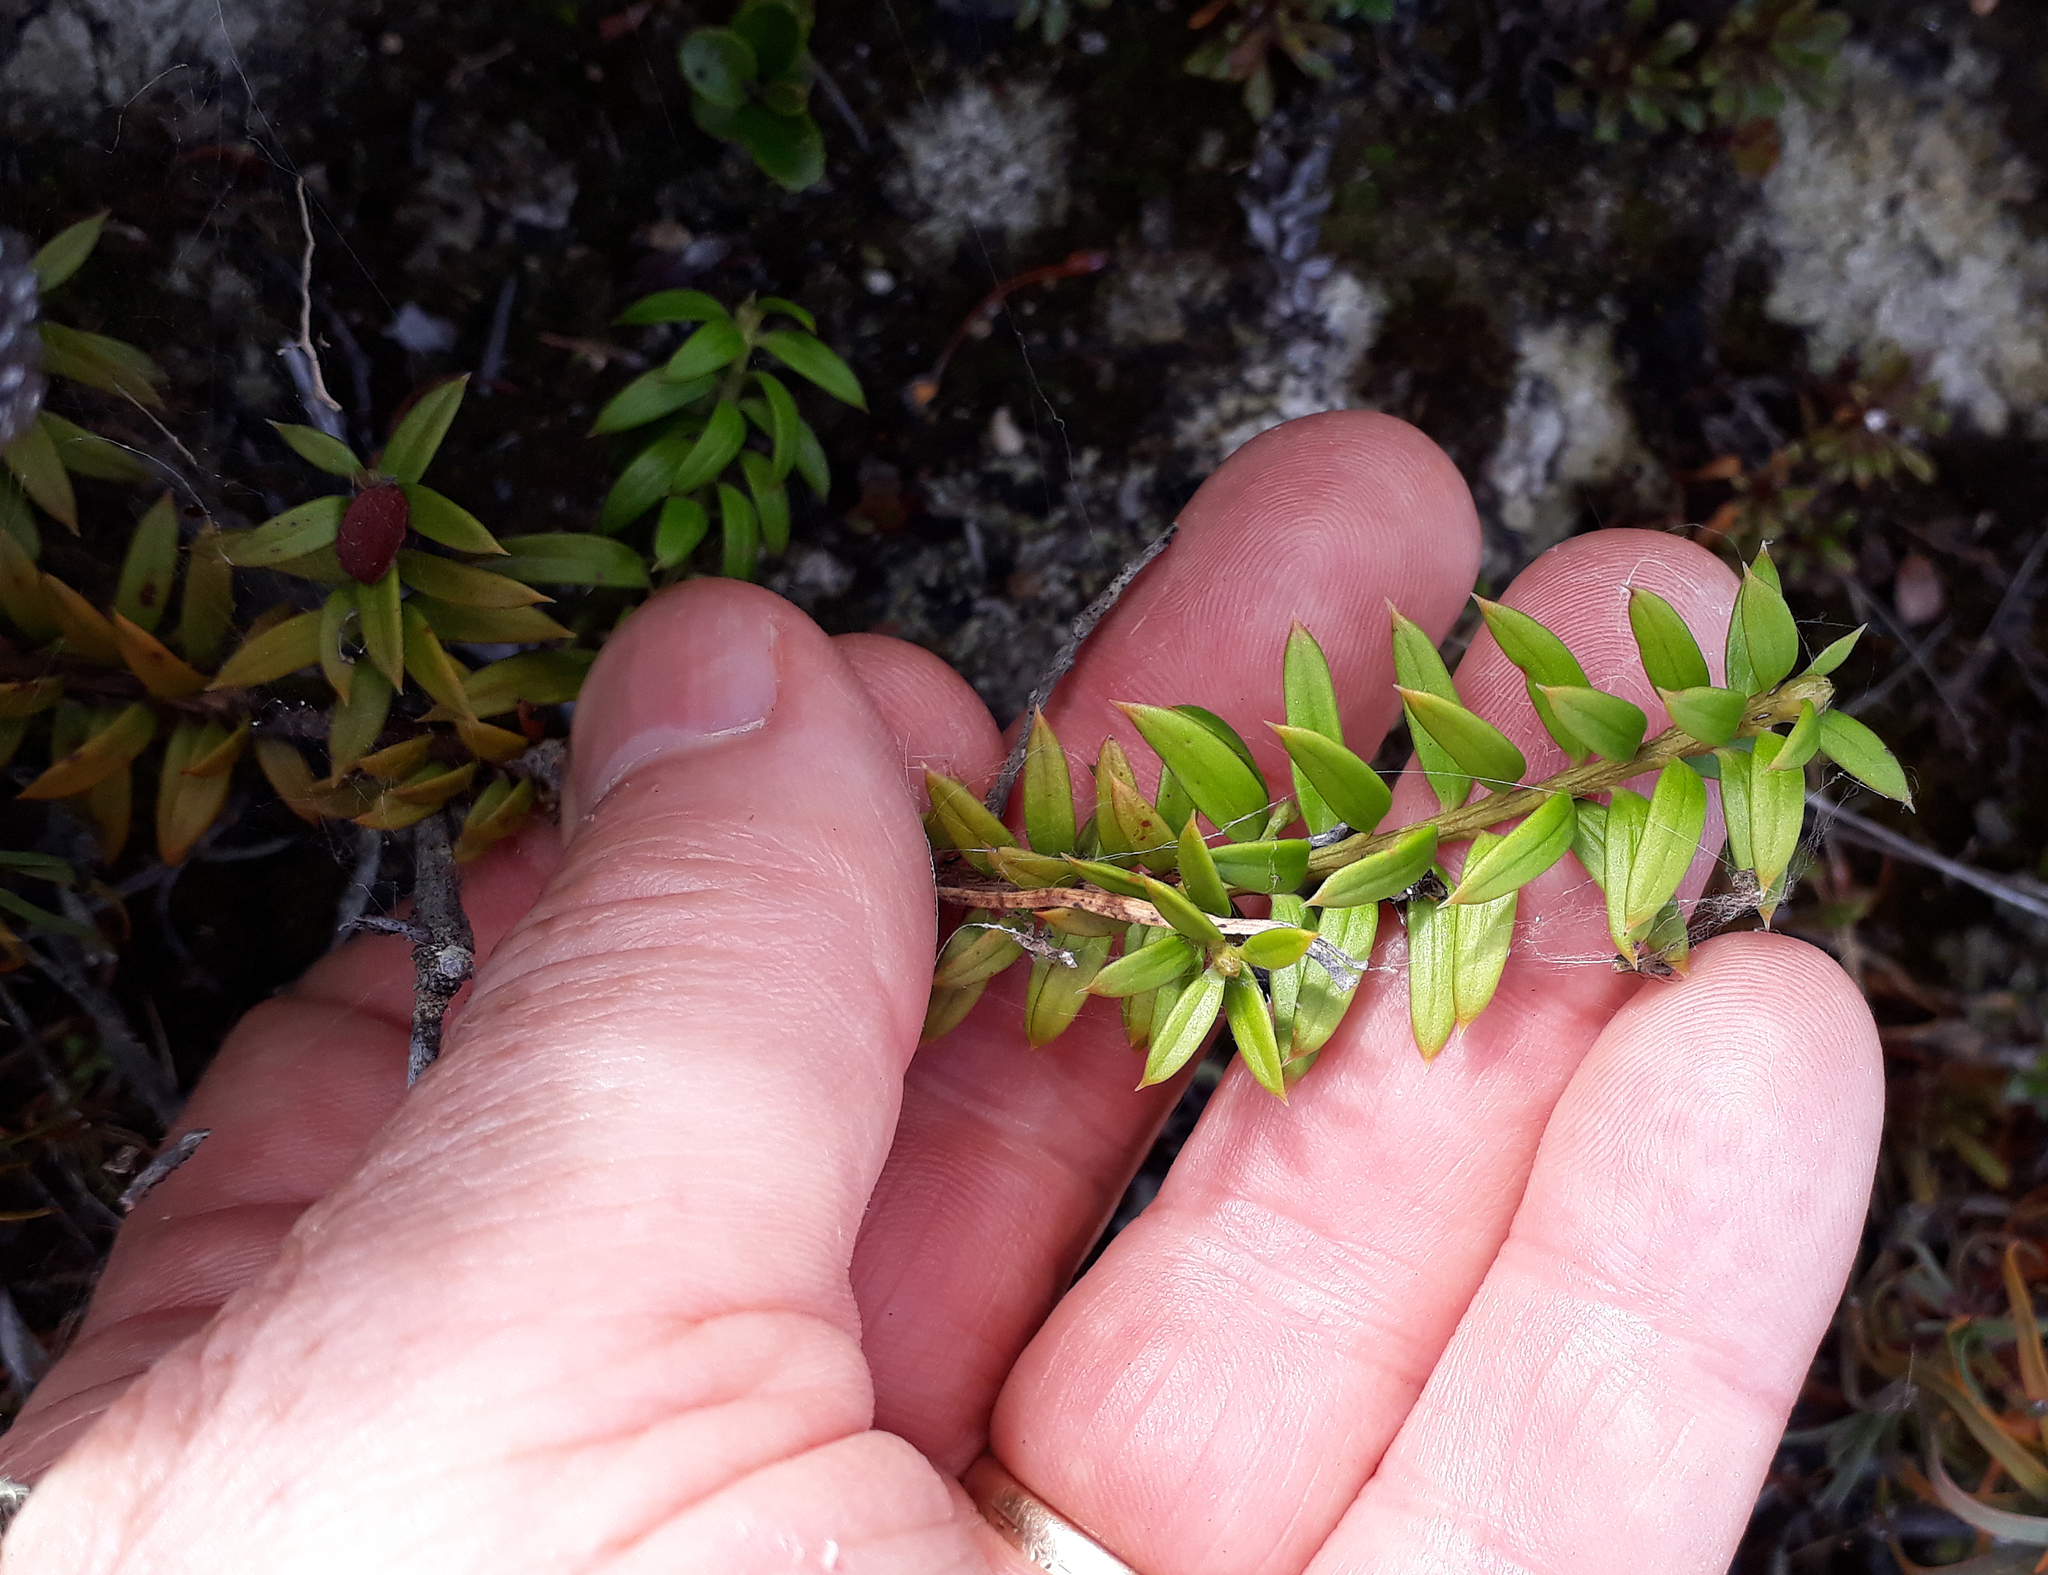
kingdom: Plantae
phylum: Tracheophyta
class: Pinopsida
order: Pinales
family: Podocarpaceae
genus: Podocarpus
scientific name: Podocarpus
